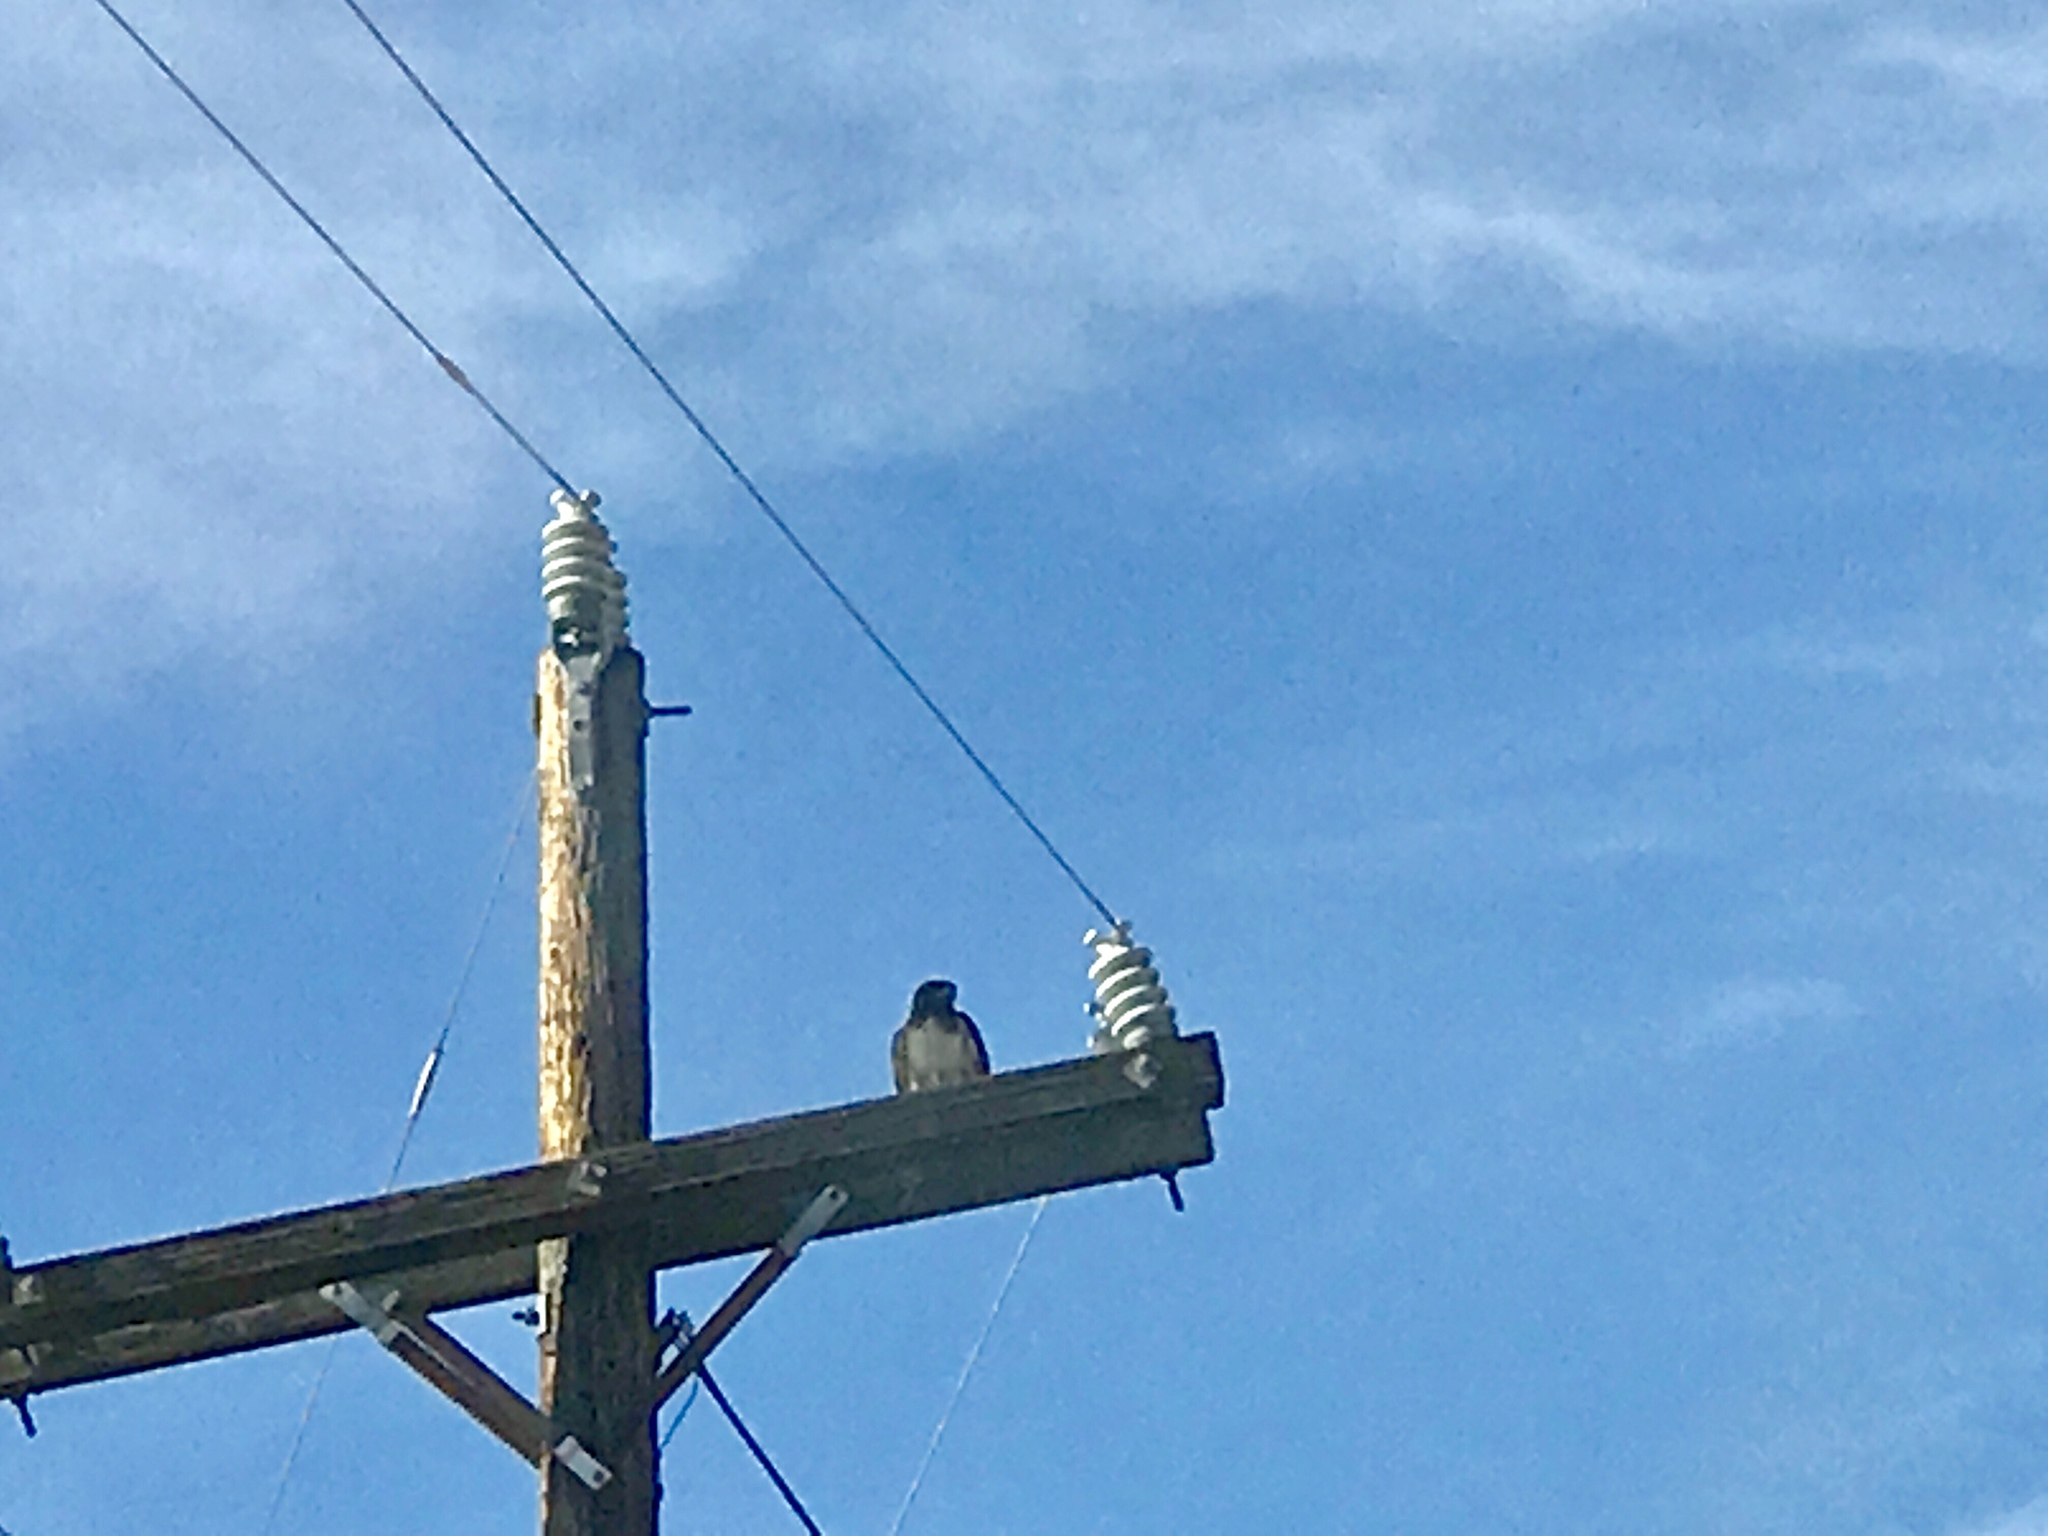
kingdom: Animalia
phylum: Chordata
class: Aves
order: Accipitriformes
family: Accipitridae
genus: Buteo
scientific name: Buteo jamaicensis
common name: Red-tailed hawk
